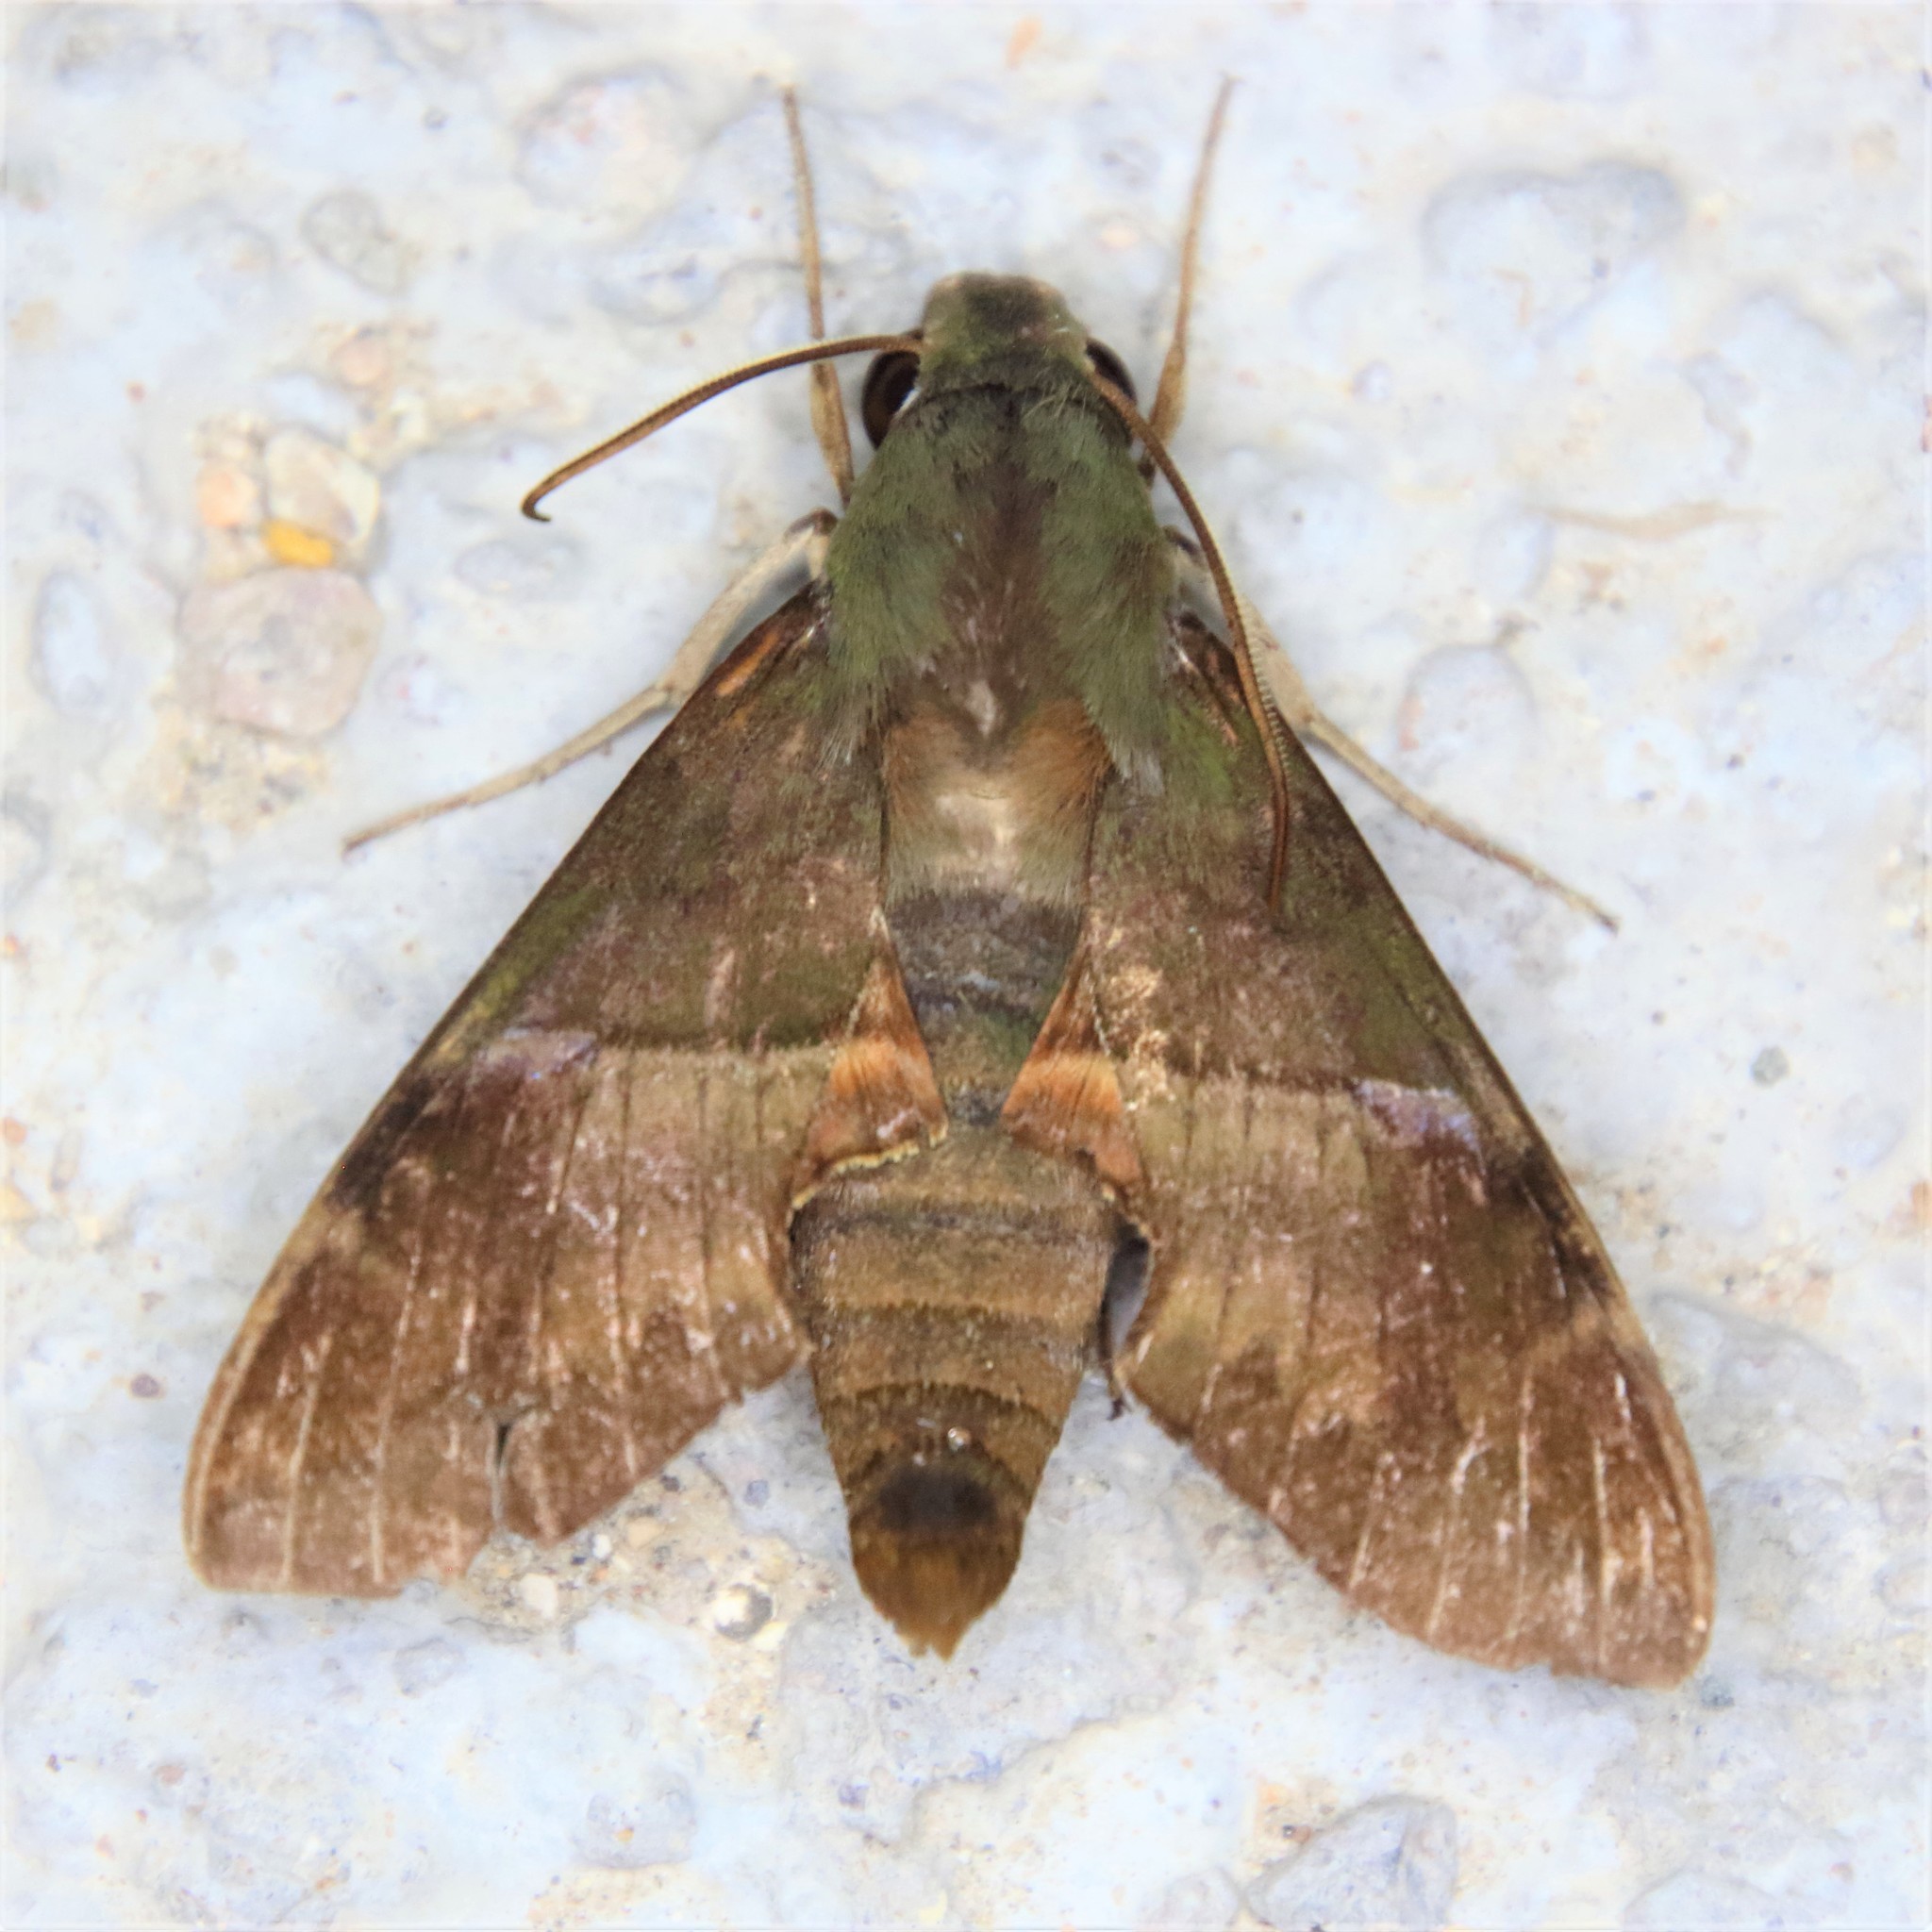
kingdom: Animalia
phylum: Arthropoda
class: Insecta
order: Lepidoptera
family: Sphingidae
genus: Angonyx
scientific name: Angonyx testacea
